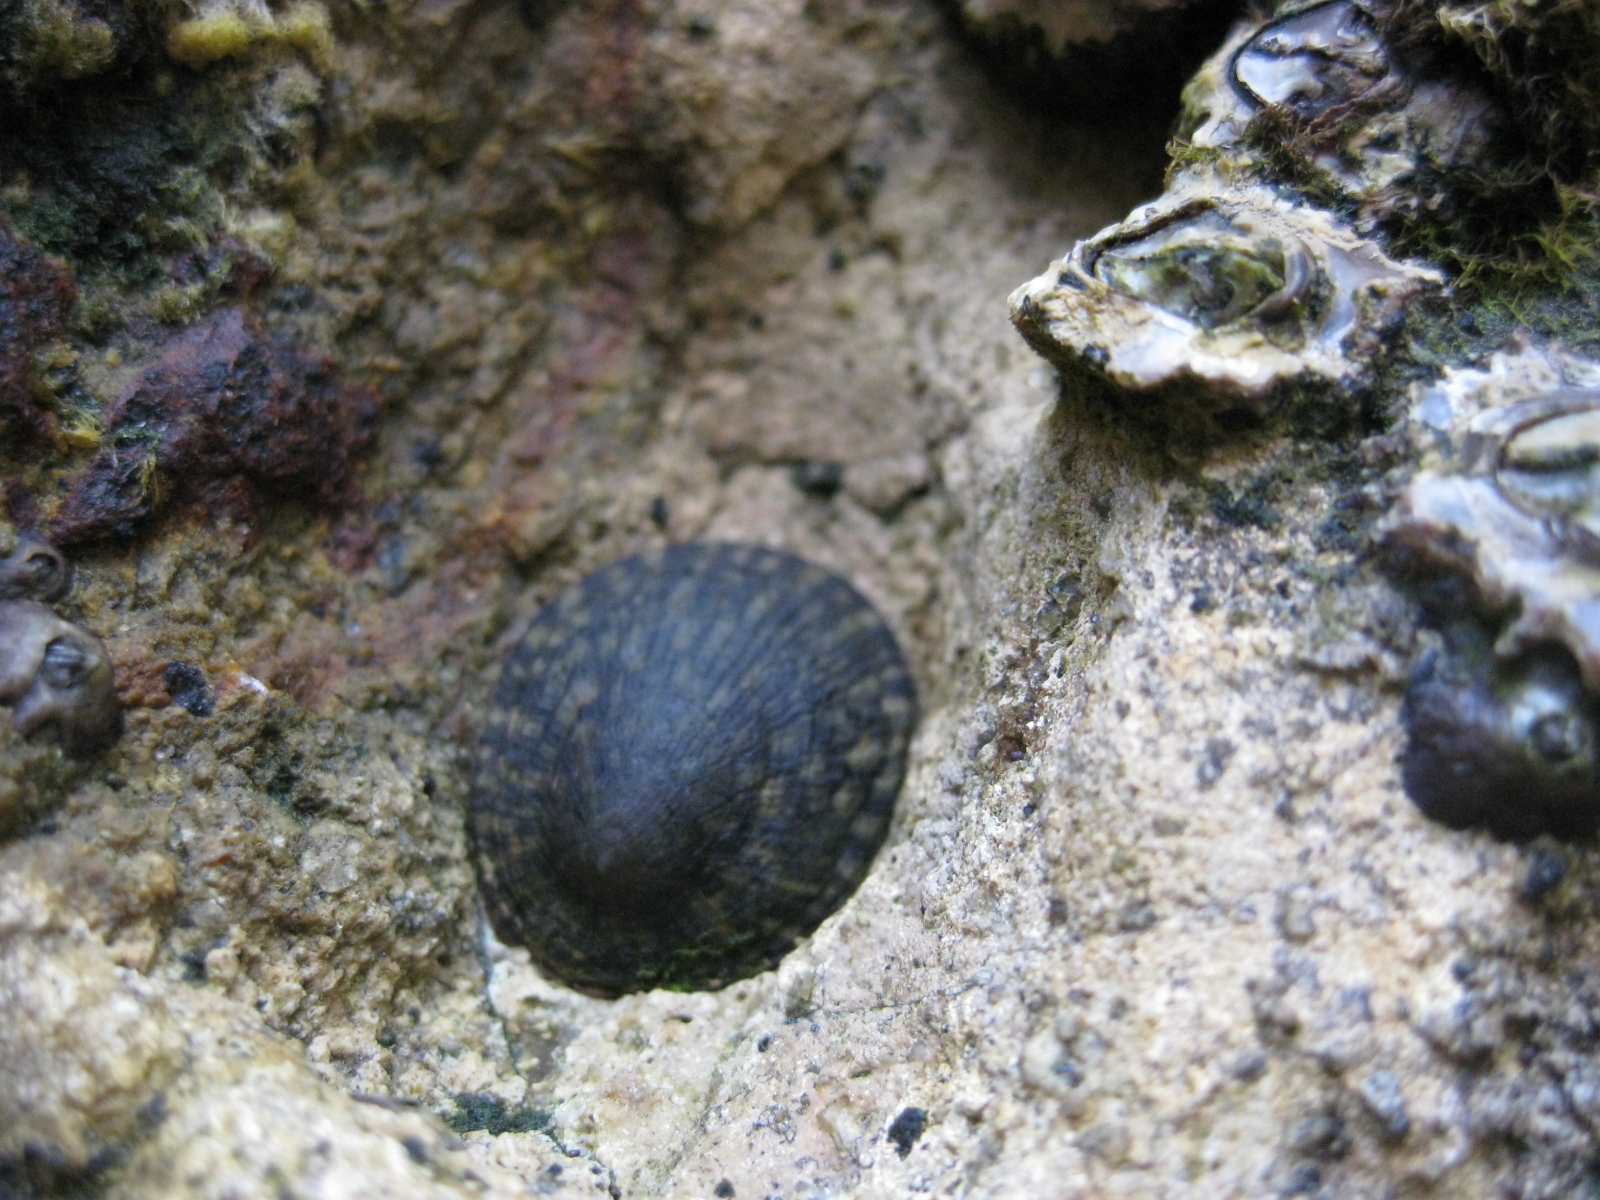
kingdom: Animalia
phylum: Mollusca
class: Gastropoda
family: Lottiidae
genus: Notoacmea
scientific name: Notoacmea pileopsis
